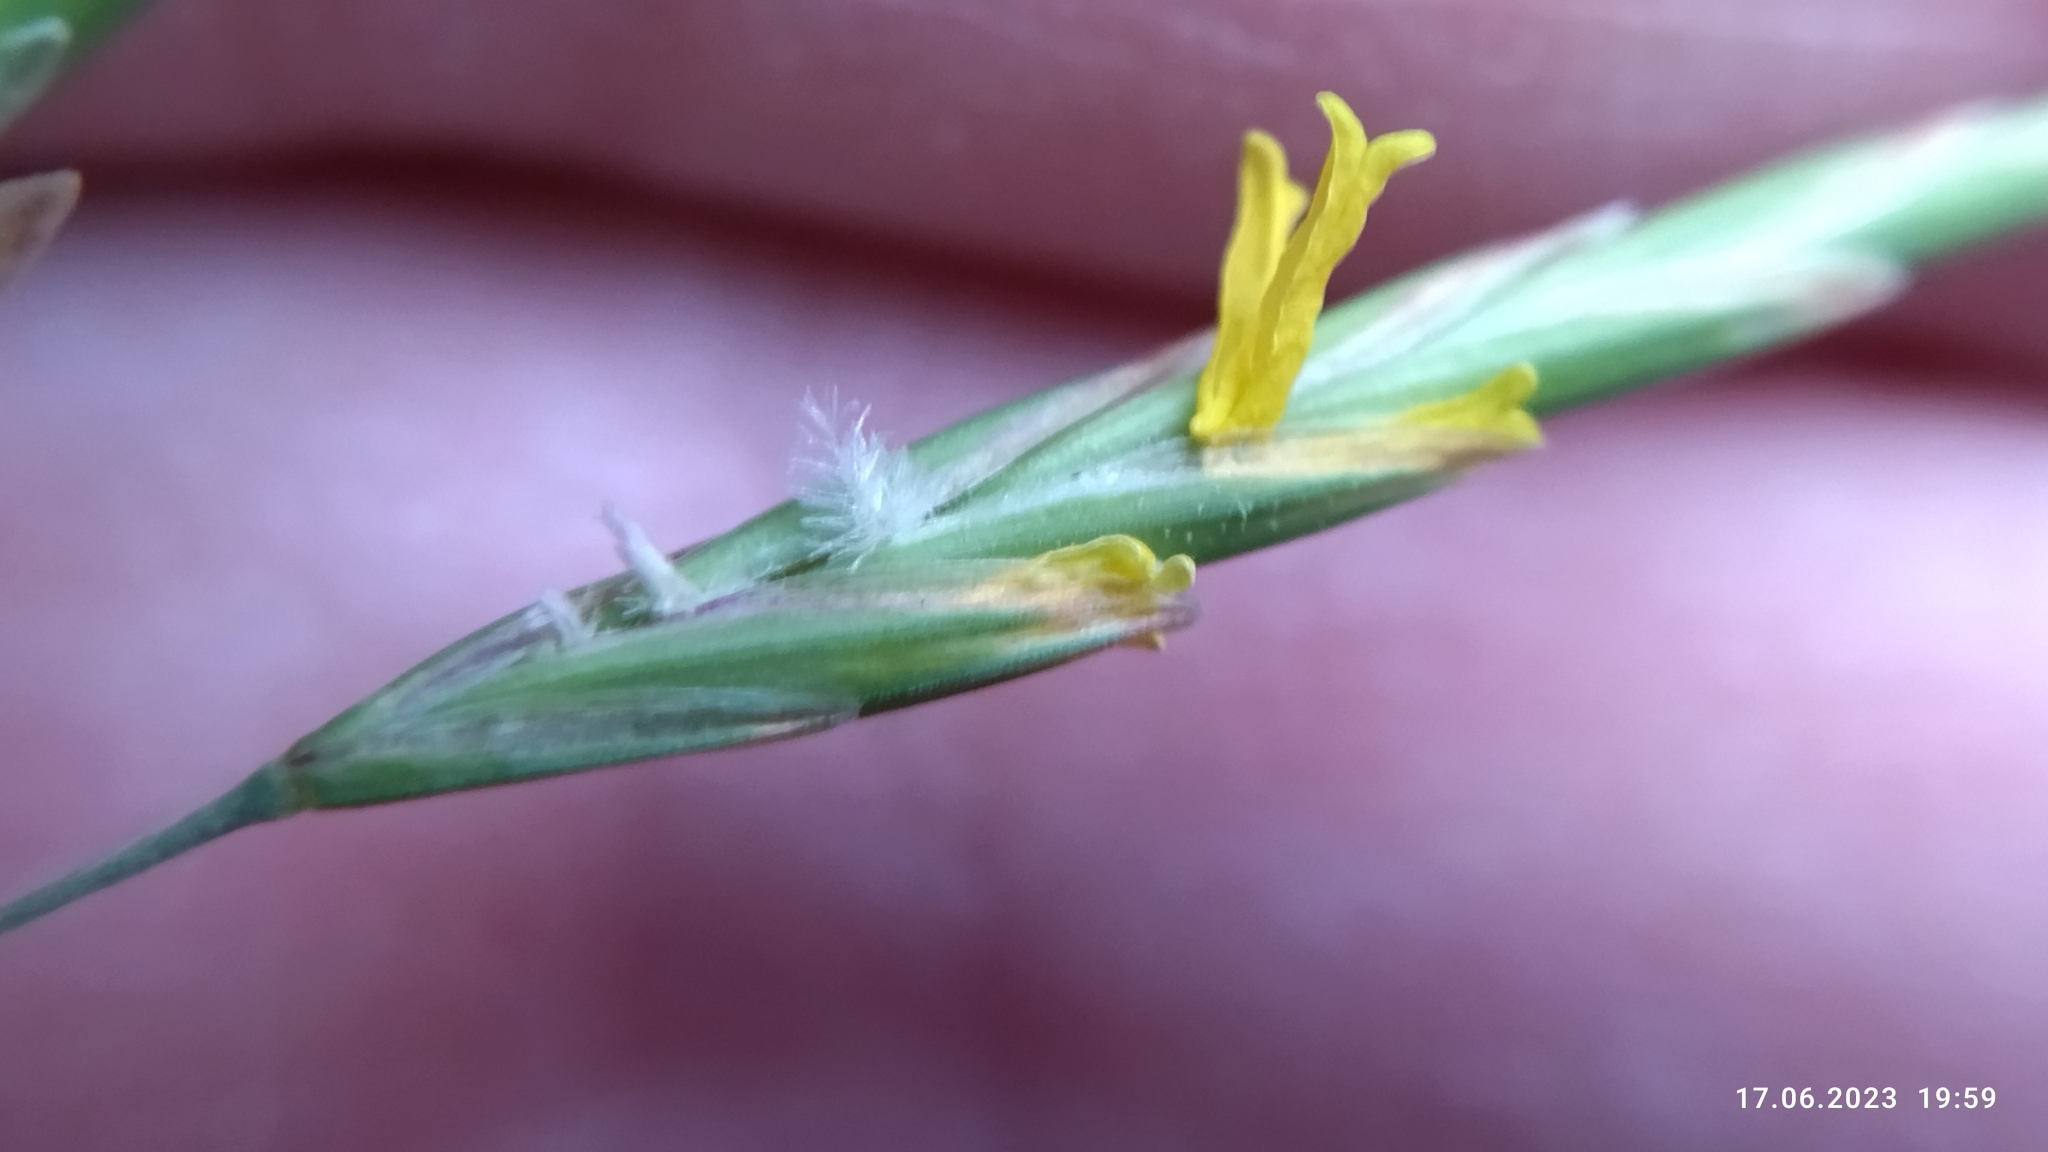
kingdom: Plantae
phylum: Tracheophyta
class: Liliopsida
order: Poales
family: Poaceae
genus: Bromus
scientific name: Bromus inermis
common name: Smooth brome
